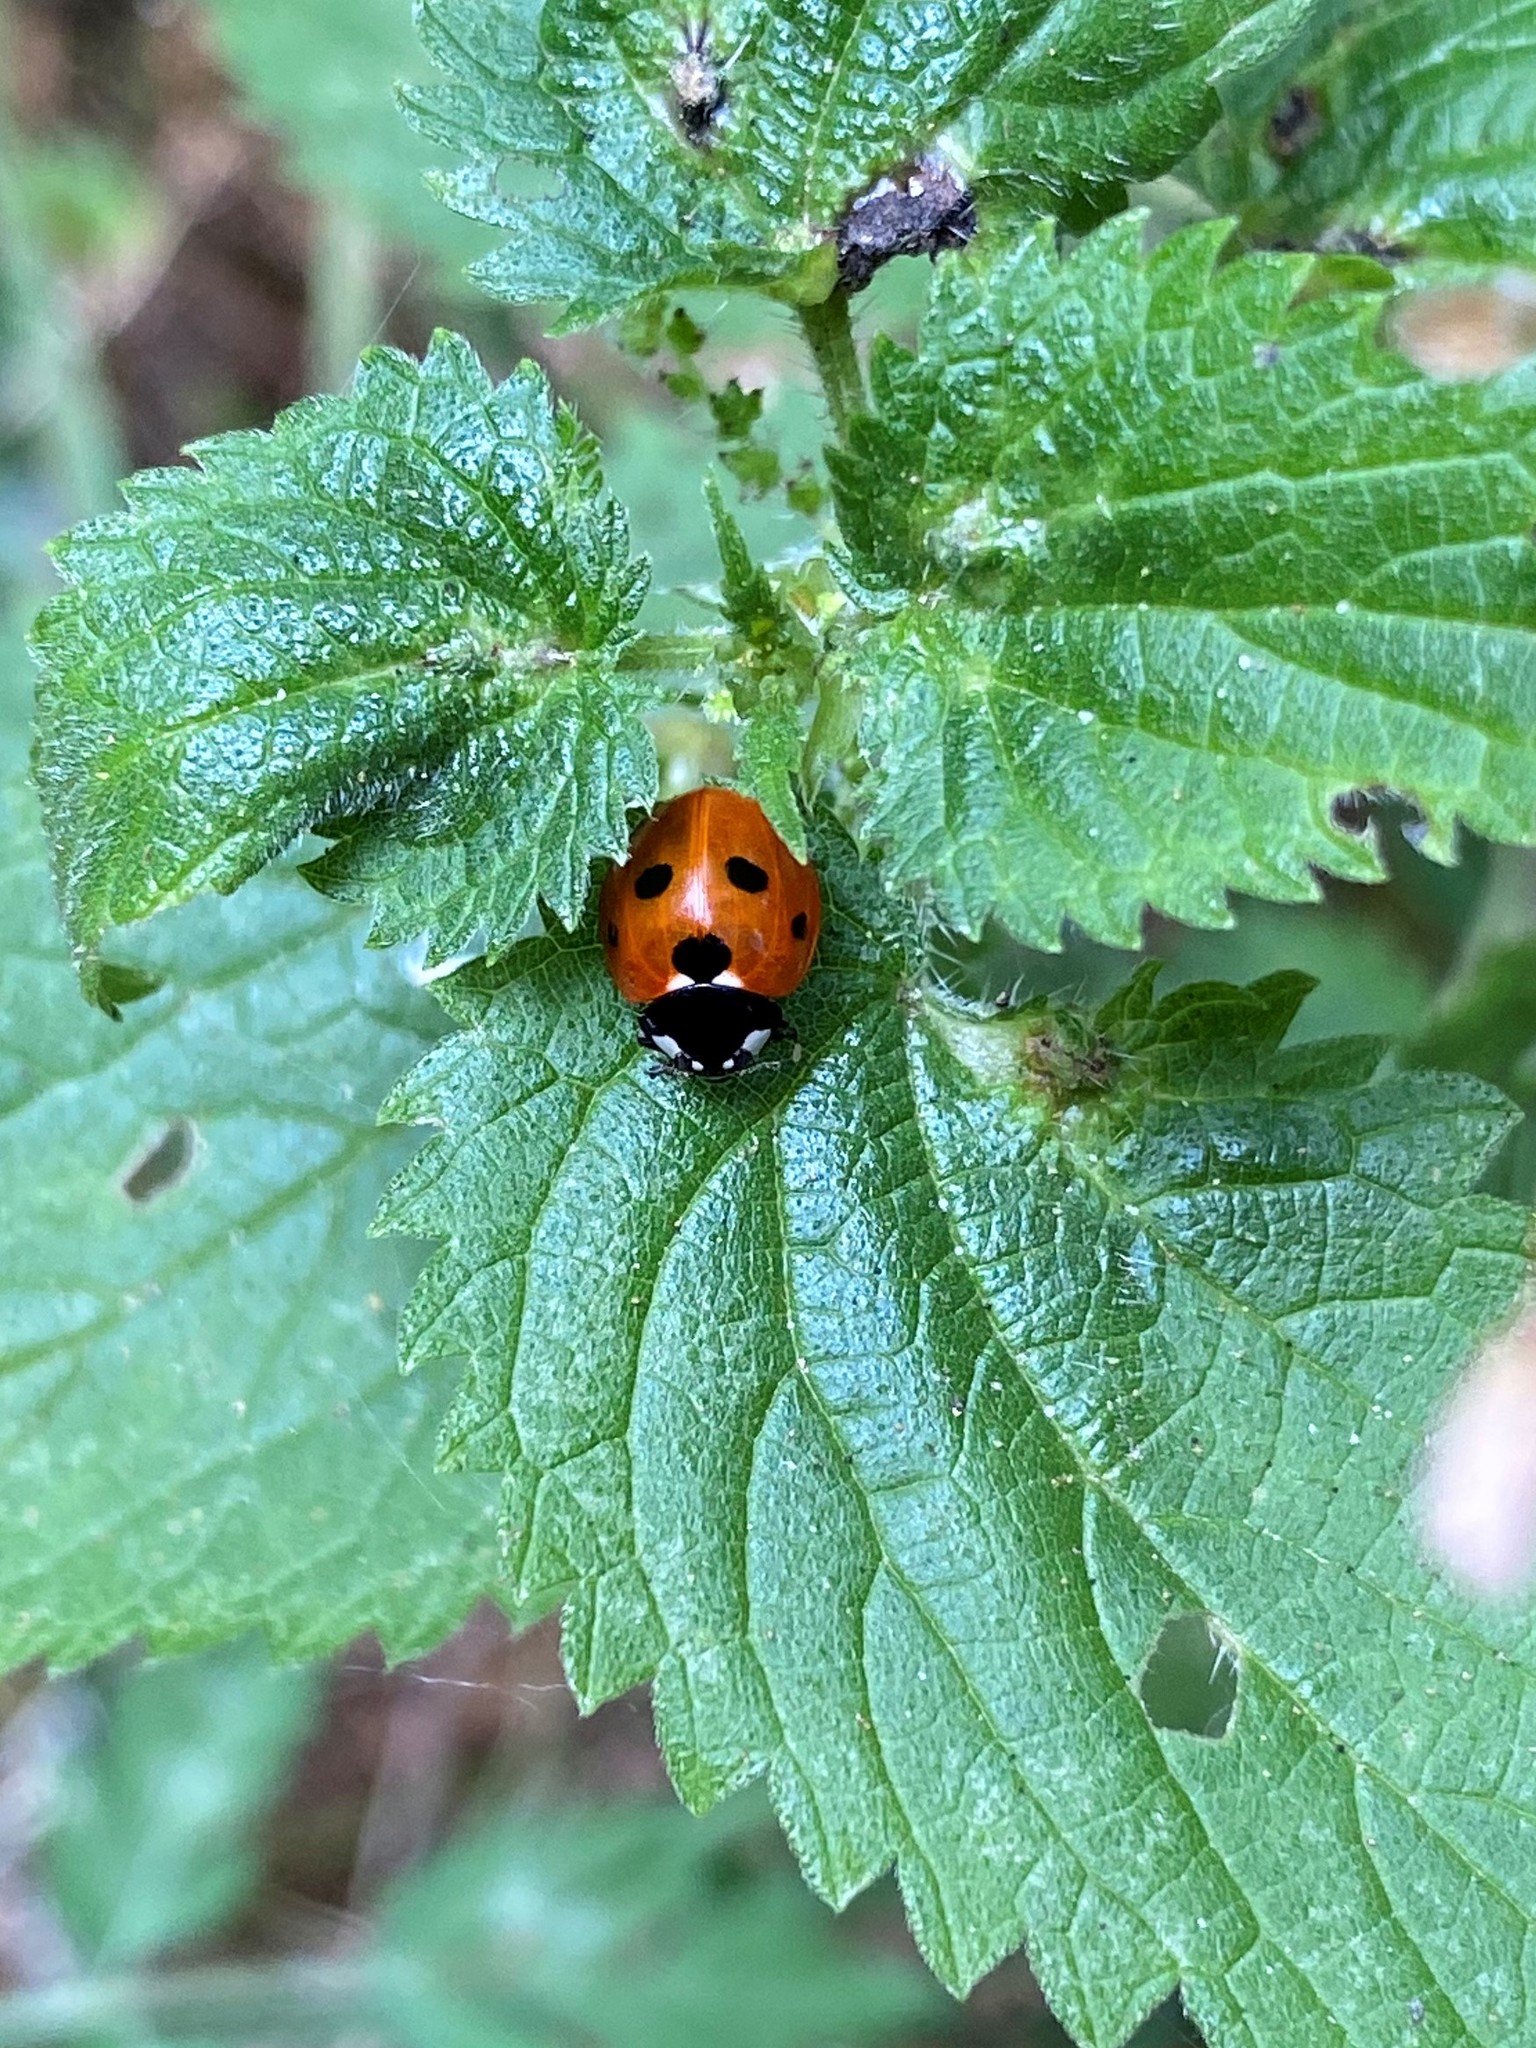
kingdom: Animalia
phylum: Arthropoda
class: Insecta
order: Coleoptera
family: Coccinellidae
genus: Coccinella
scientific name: Coccinella septempunctata
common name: Sevenspotted lady beetle
